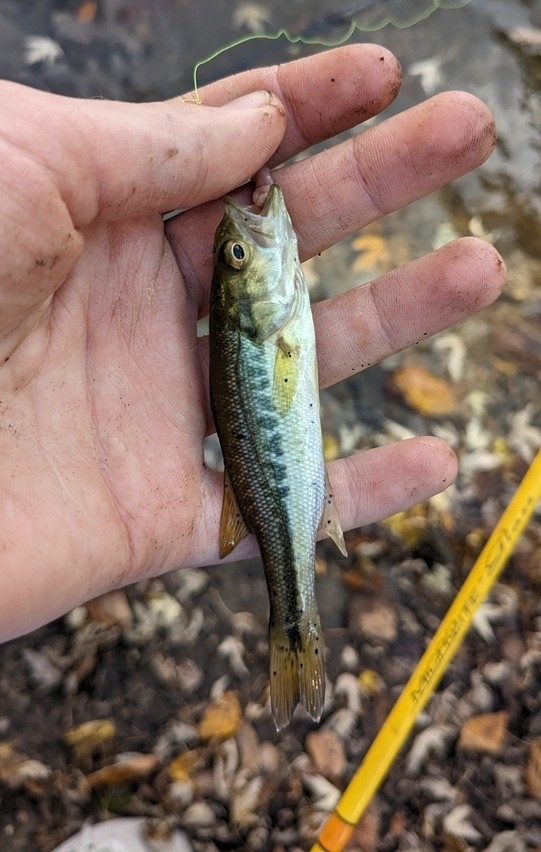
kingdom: Animalia
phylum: Chordata
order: Perciformes
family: Centrarchidae
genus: Micropterus
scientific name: Micropterus
